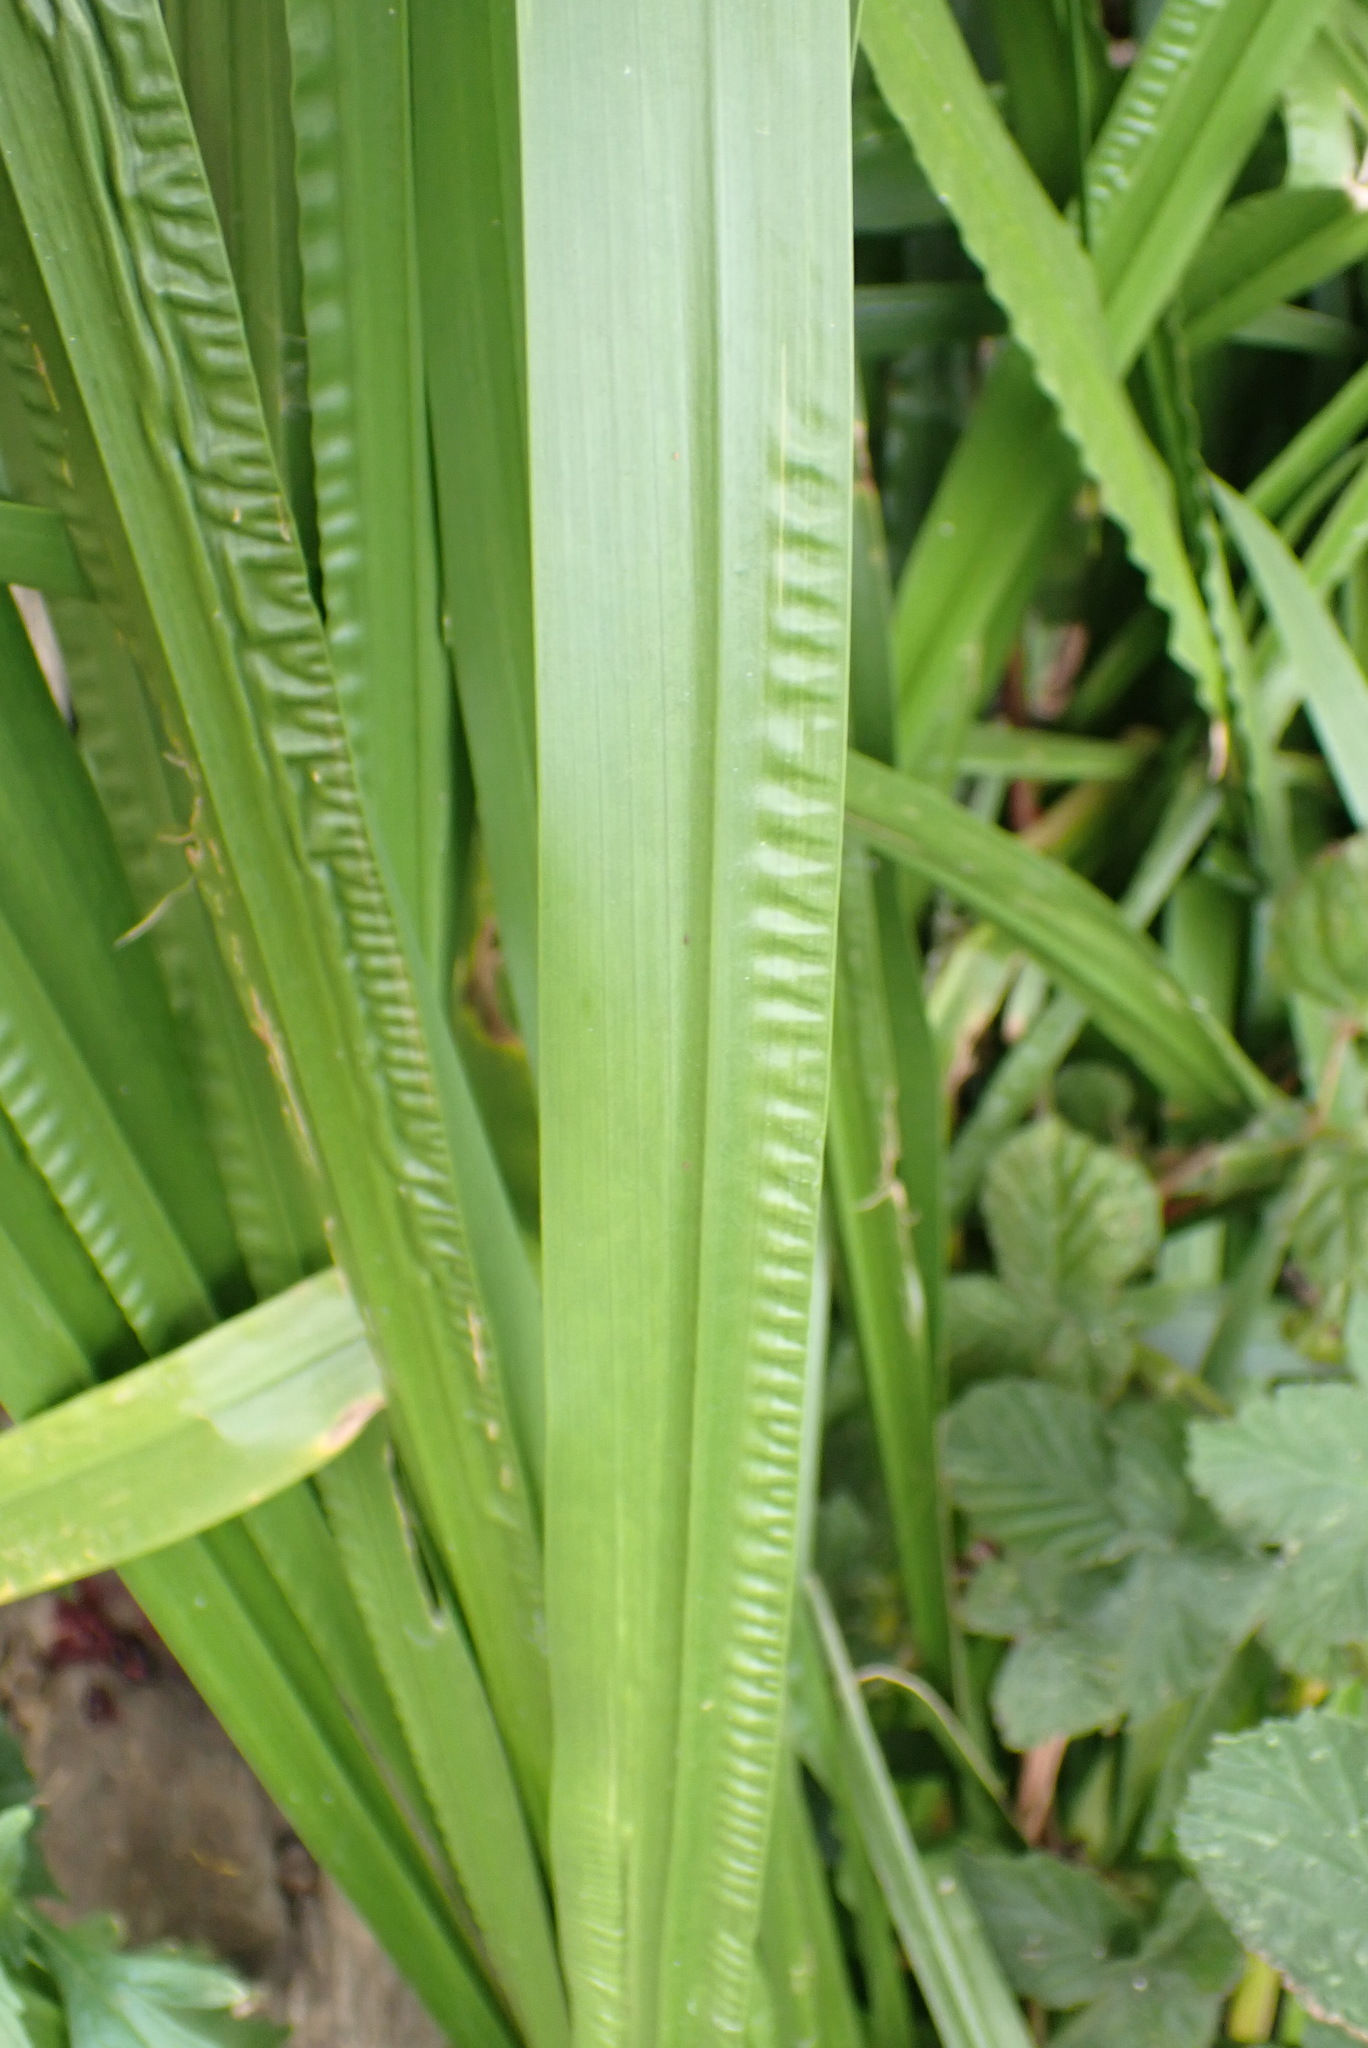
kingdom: Plantae
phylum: Tracheophyta
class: Liliopsida
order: Acorales
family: Acoraceae
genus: Acorus
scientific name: Acorus calamus
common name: Sweet-flag
